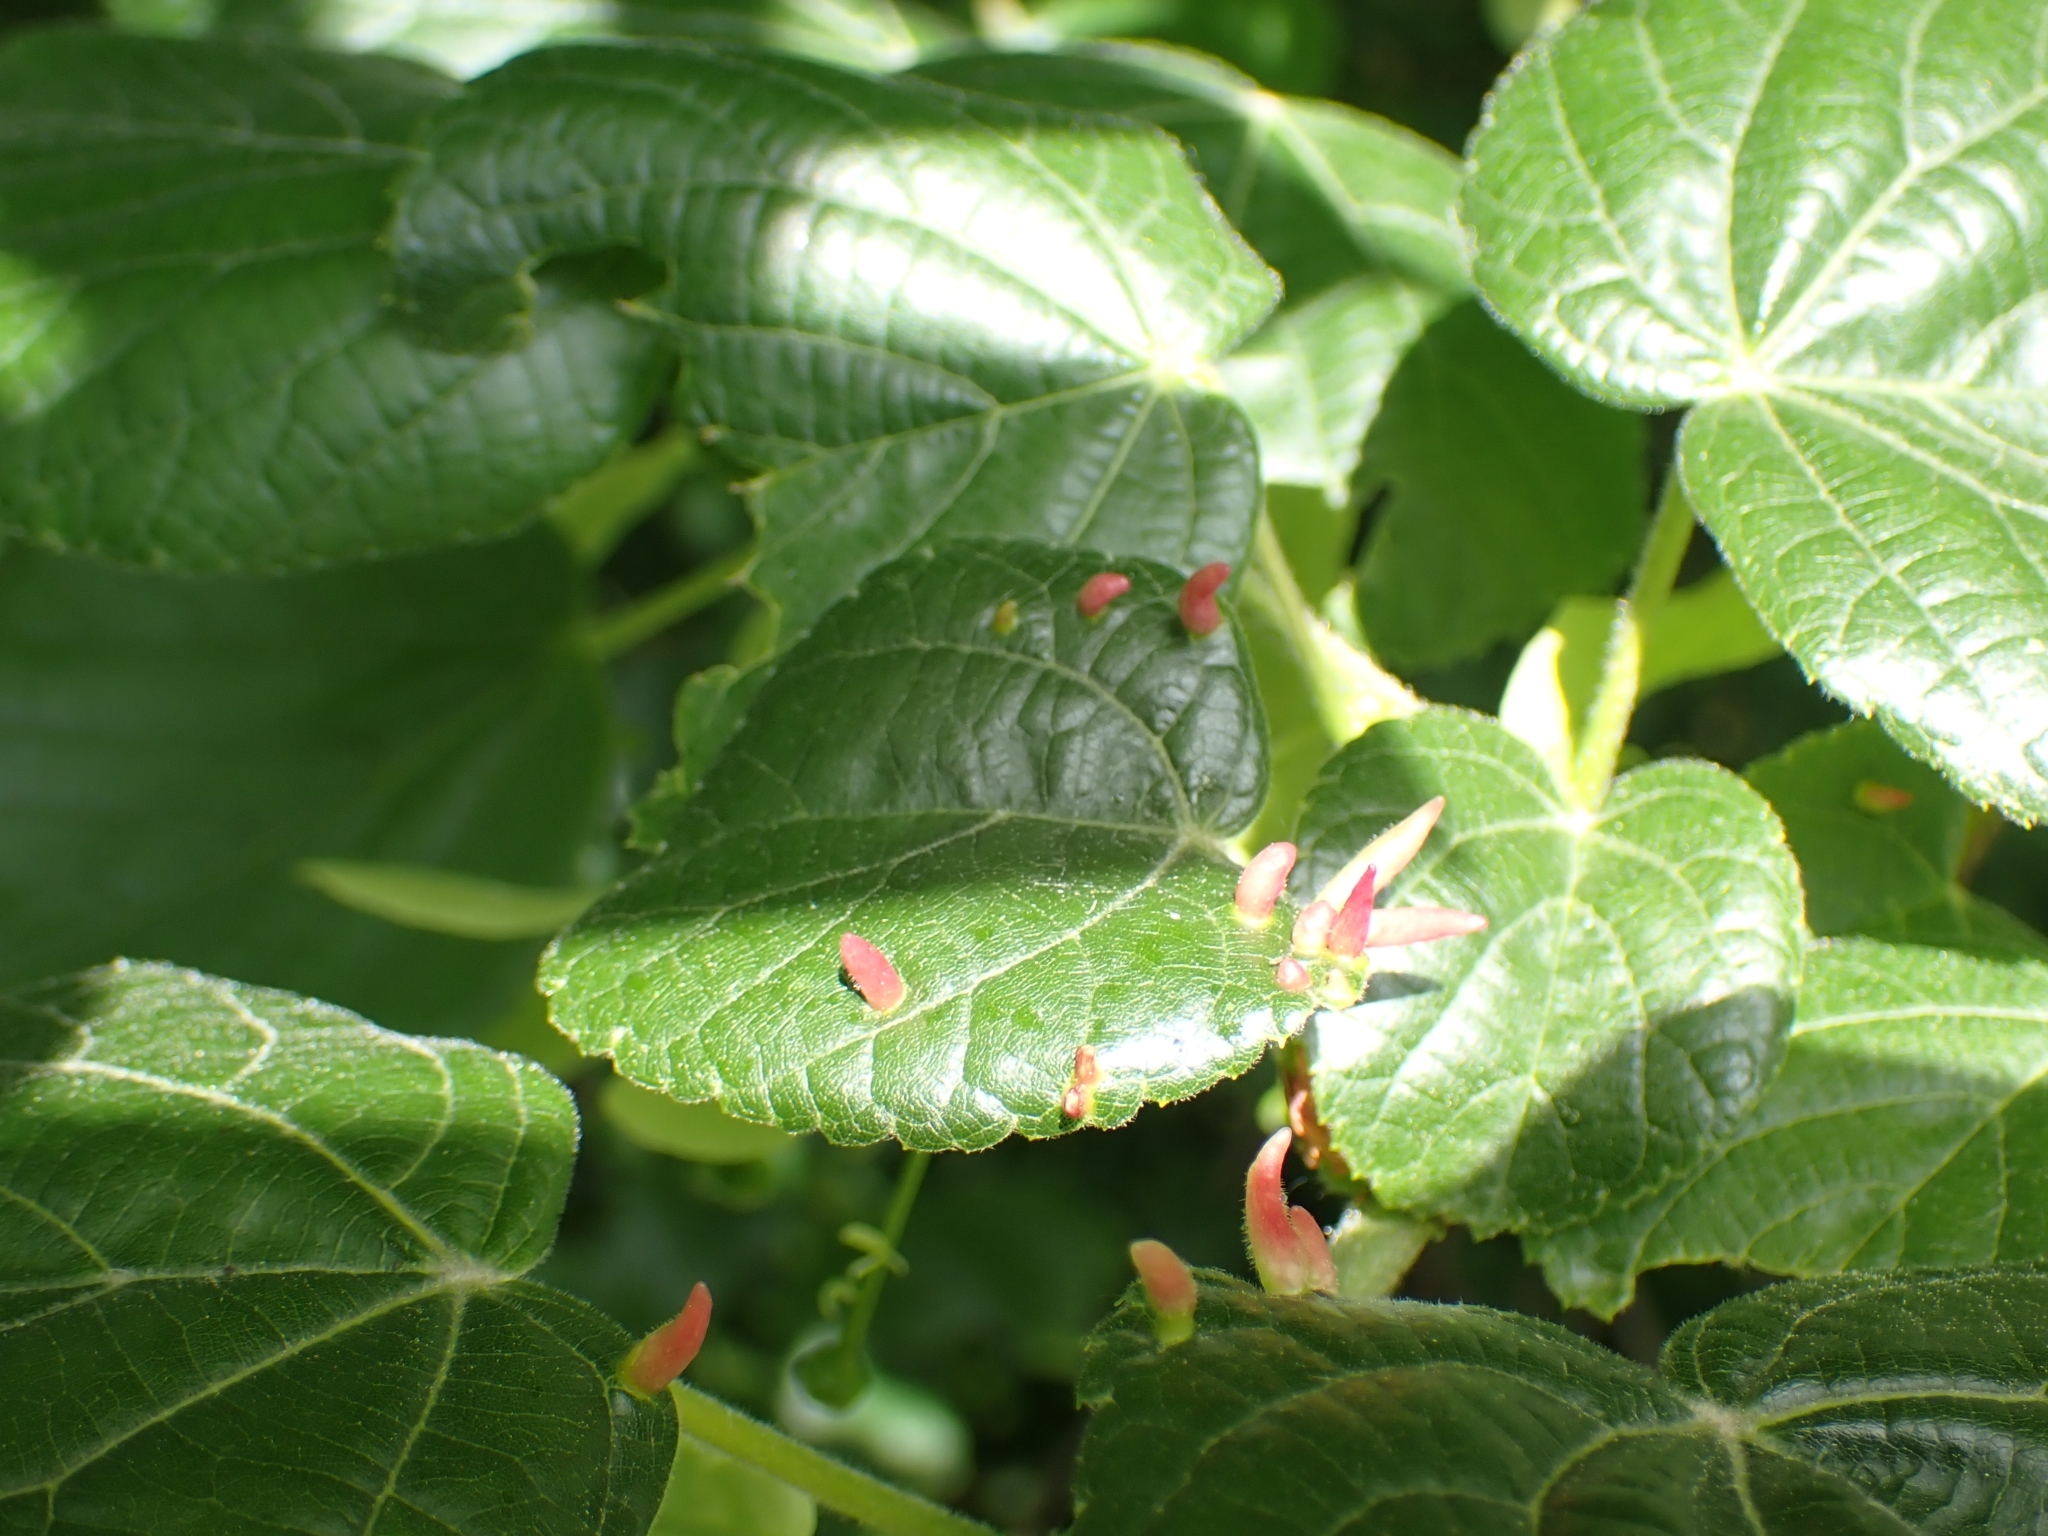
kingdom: Animalia
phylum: Arthropoda
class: Arachnida
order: Trombidiformes
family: Eriophyidae
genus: Eriophyes
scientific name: Eriophyes tiliae
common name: Red nail gall mite
